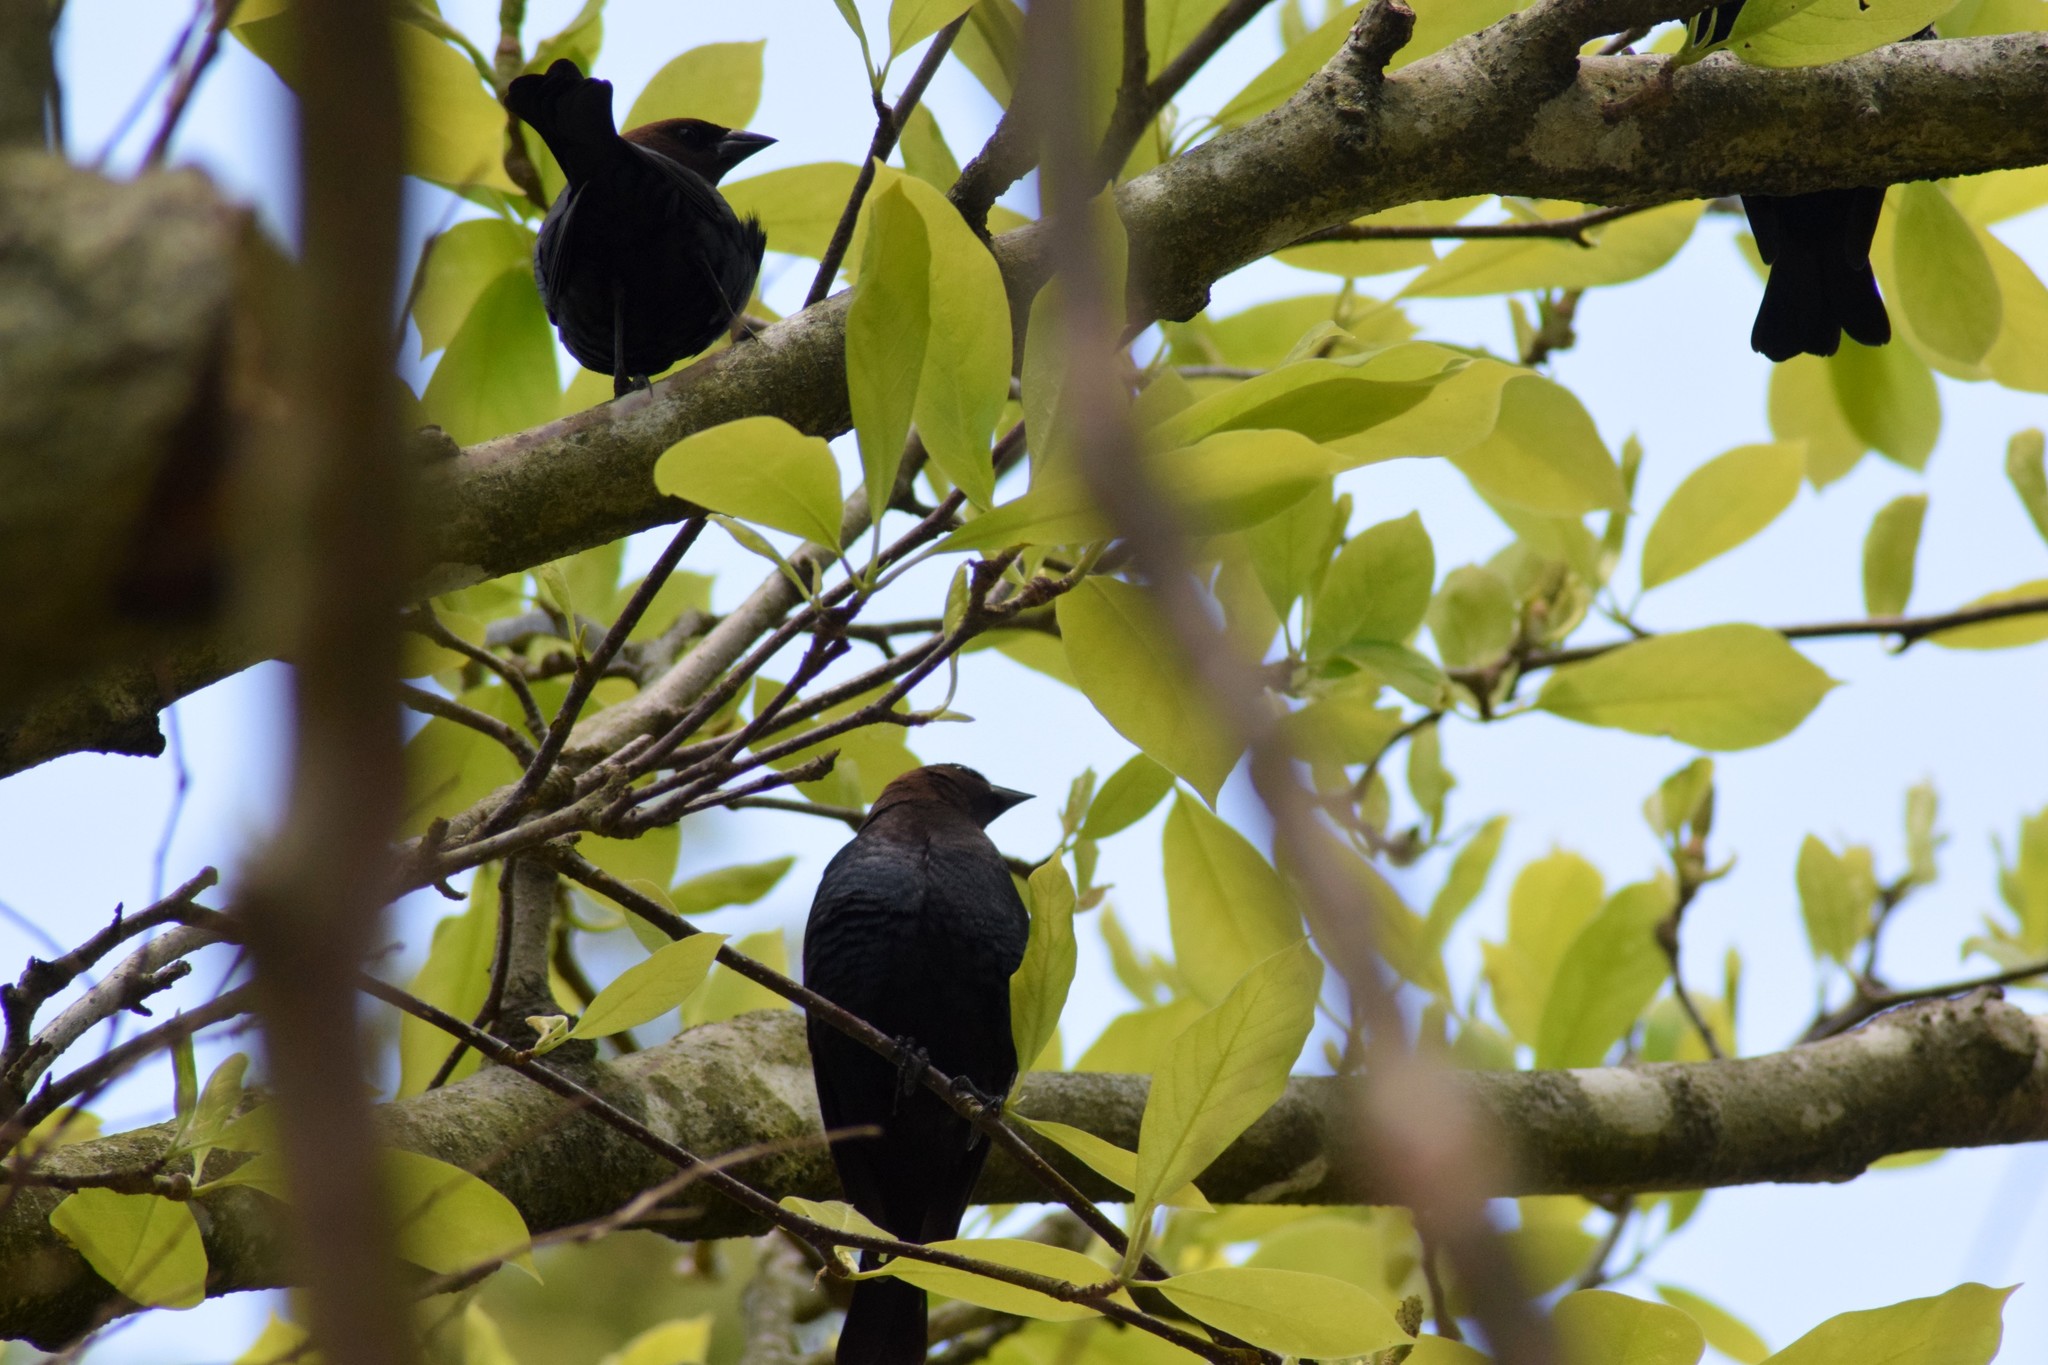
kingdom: Animalia
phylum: Chordata
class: Aves
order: Passeriformes
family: Icteridae
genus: Molothrus
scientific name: Molothrus ater
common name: Brown-headed cowbird
